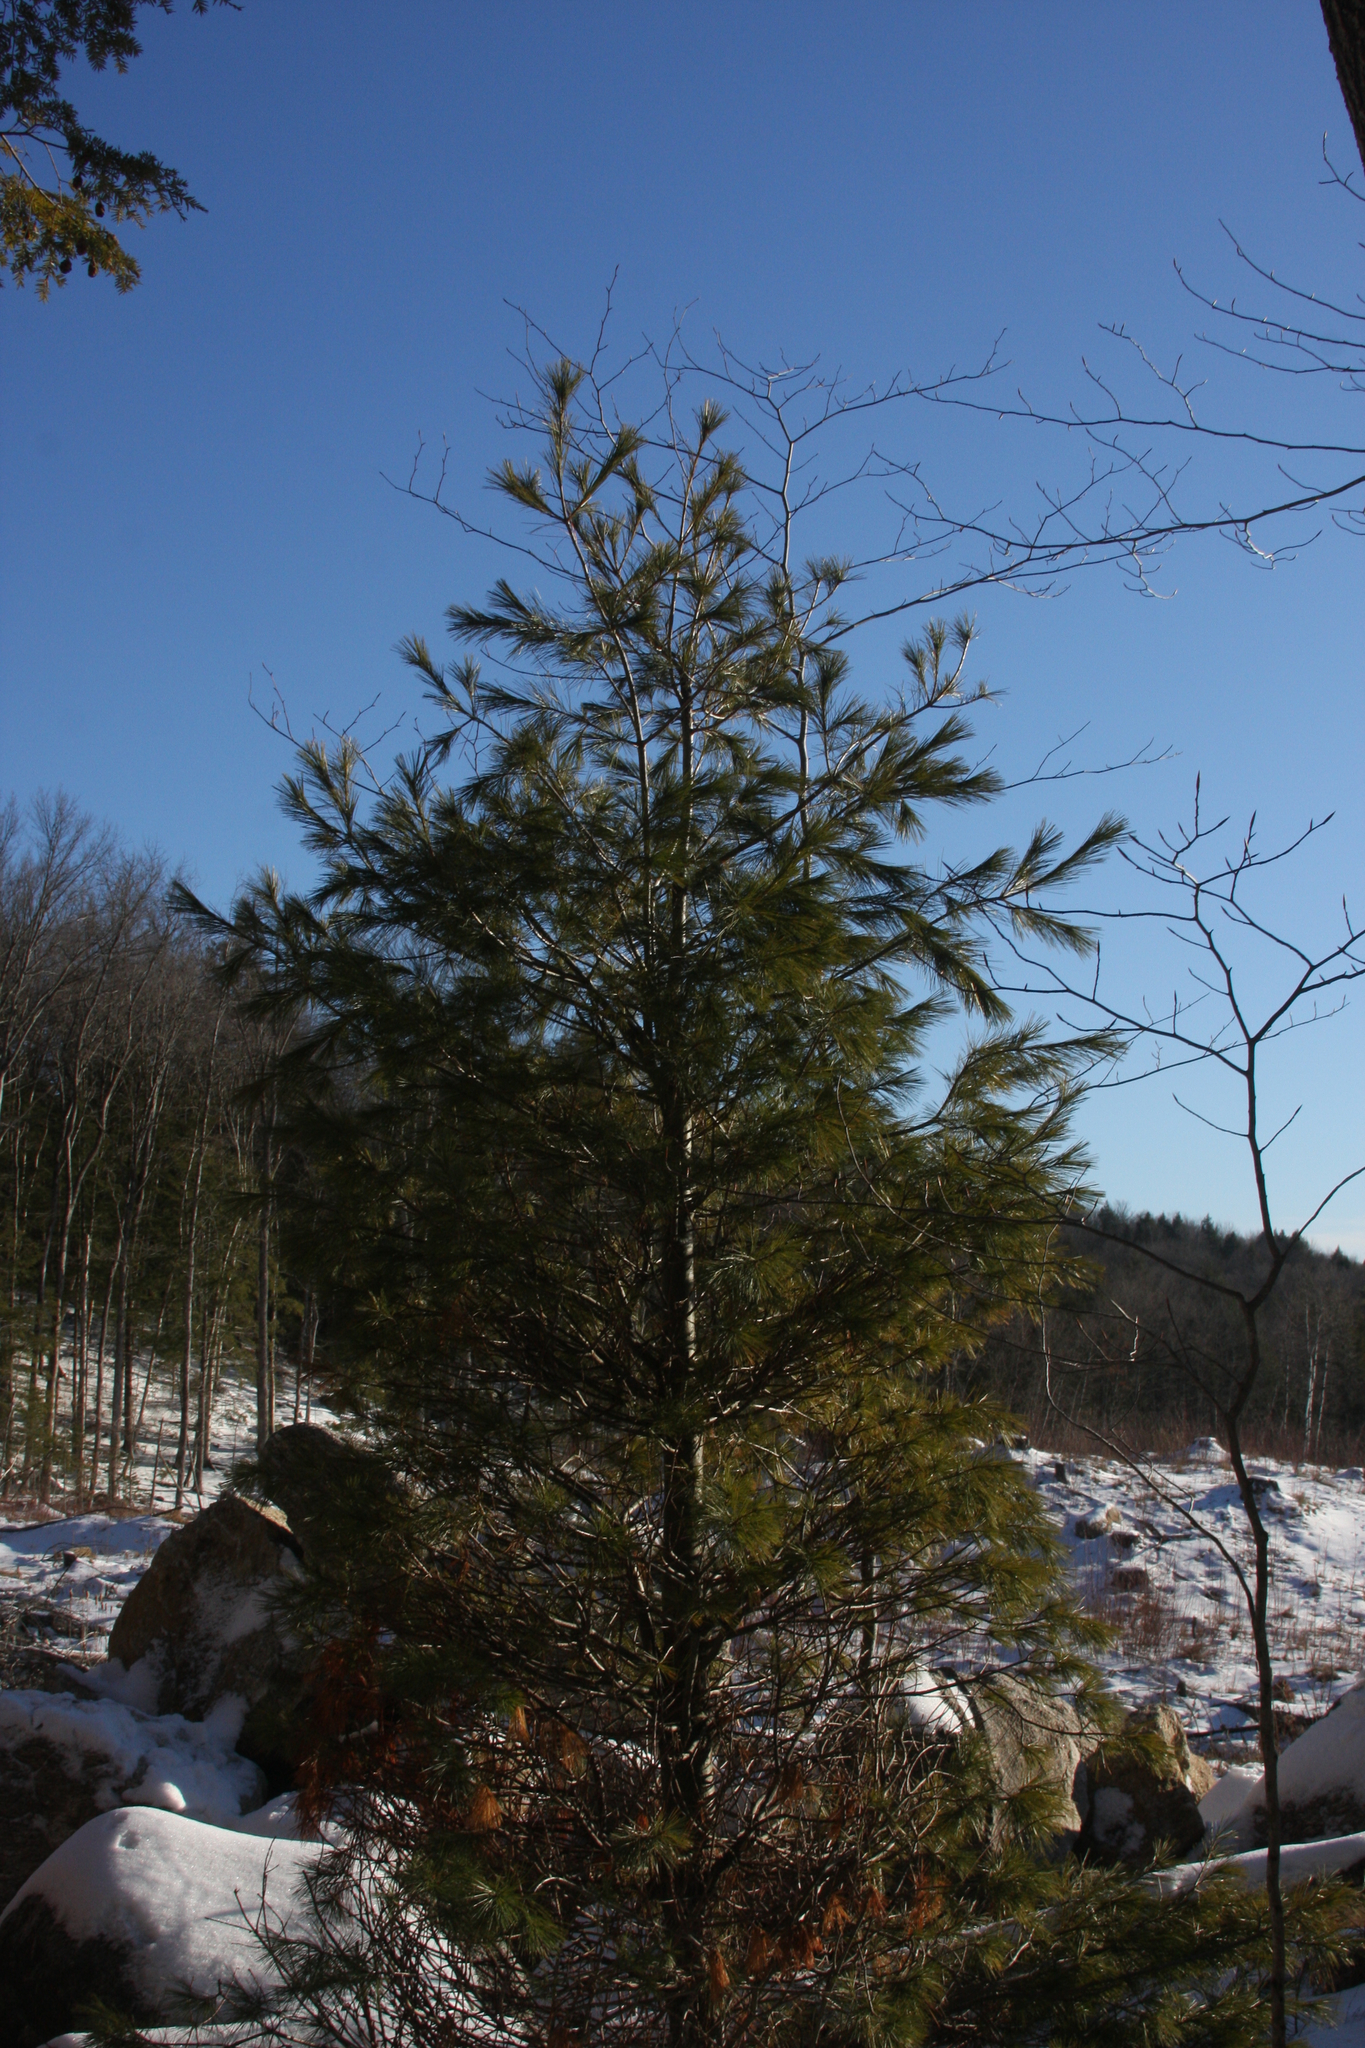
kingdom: Plantae
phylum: Tracheophyta
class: Pinopsida
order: Pinales
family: Pinaceae
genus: Pinus
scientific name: Pinus strobus
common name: Weymouth pine
